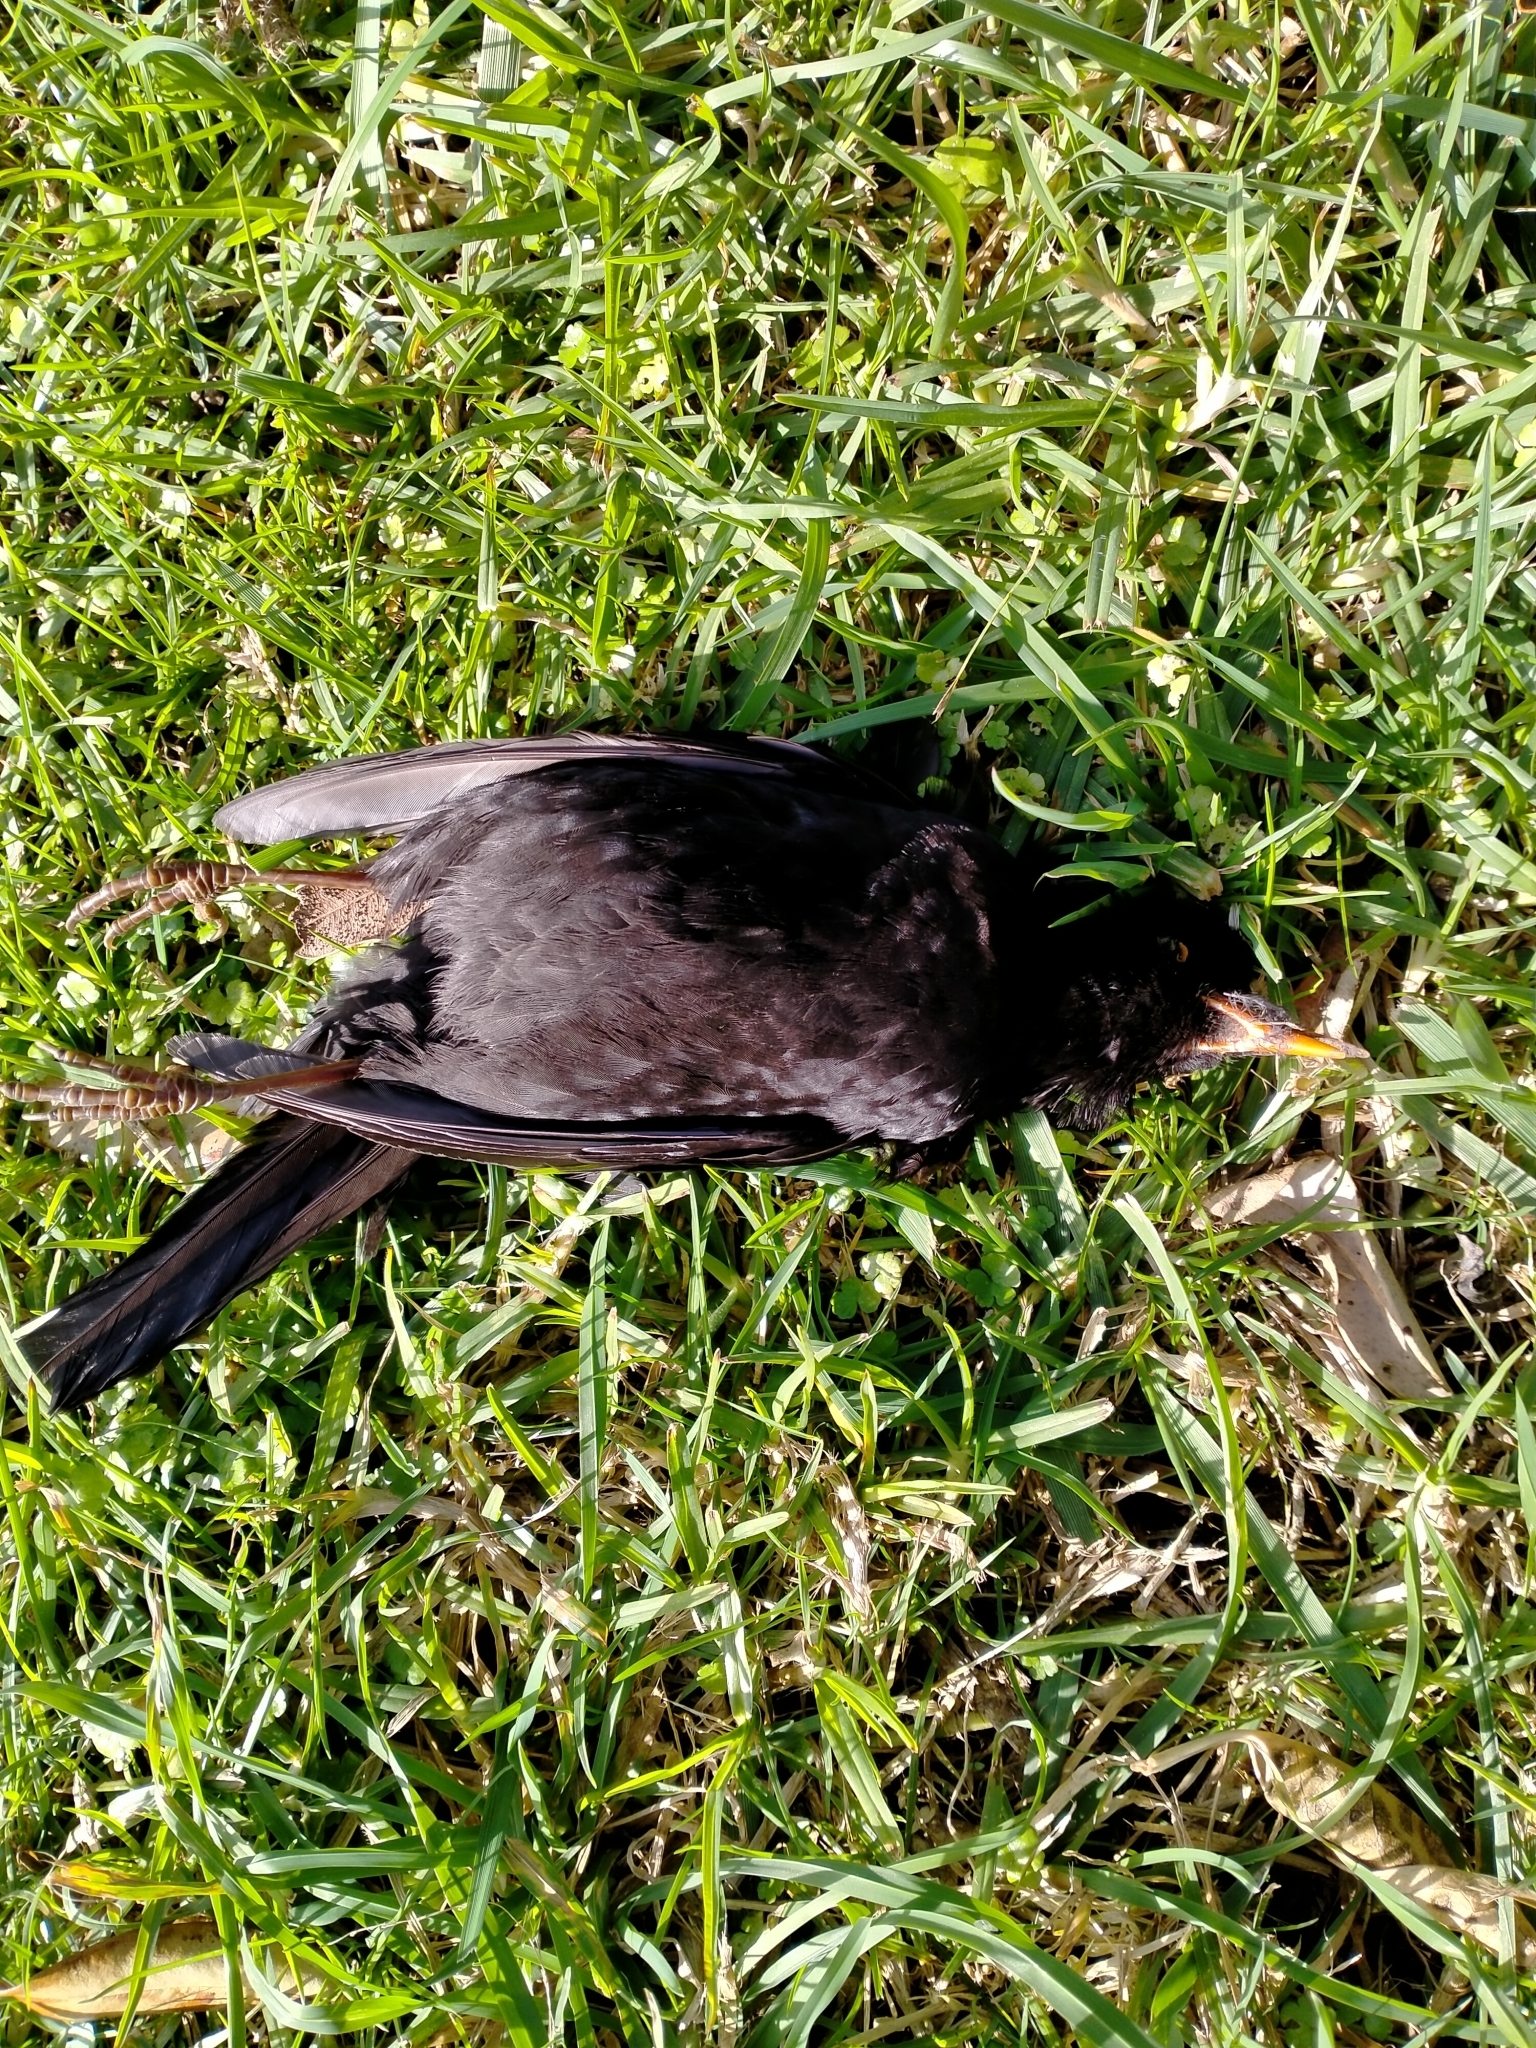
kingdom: Animalia
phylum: Chordata
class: Aves
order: Passeriformes
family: Turdidae
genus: Turdus
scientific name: Turdus merula
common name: Common blackbird
